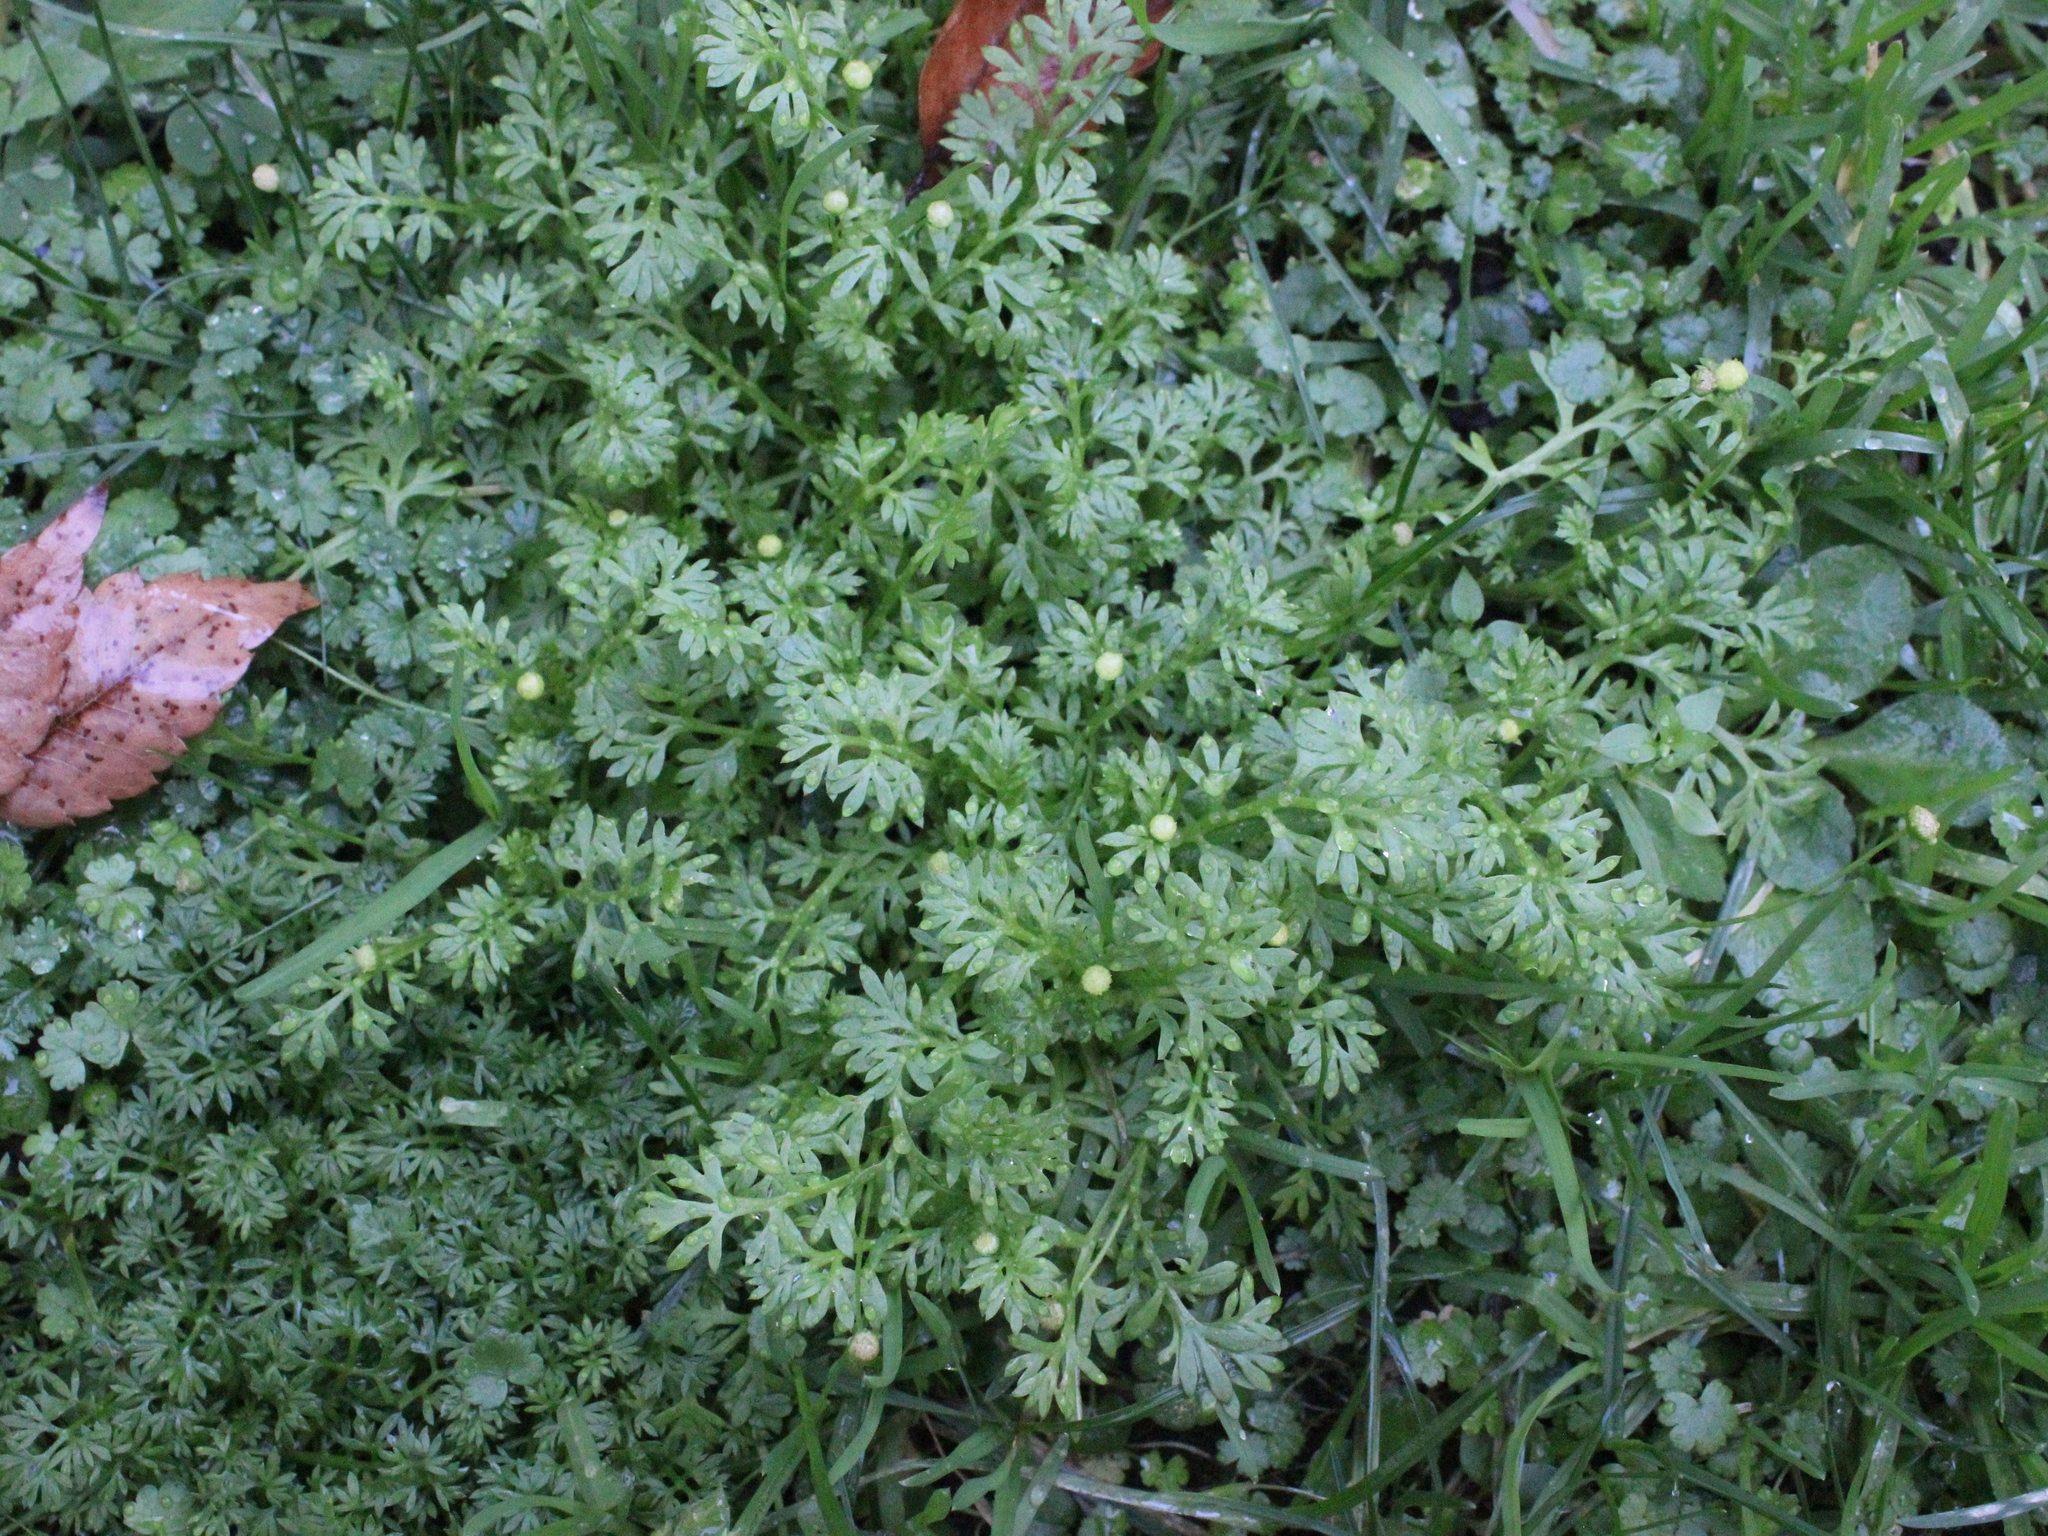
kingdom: Plantae
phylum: Tracheophyta
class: Magnoliopsida
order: Asterales
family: Asteraceae
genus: Cotula
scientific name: Cotula australis
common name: Australian waterbuttons
